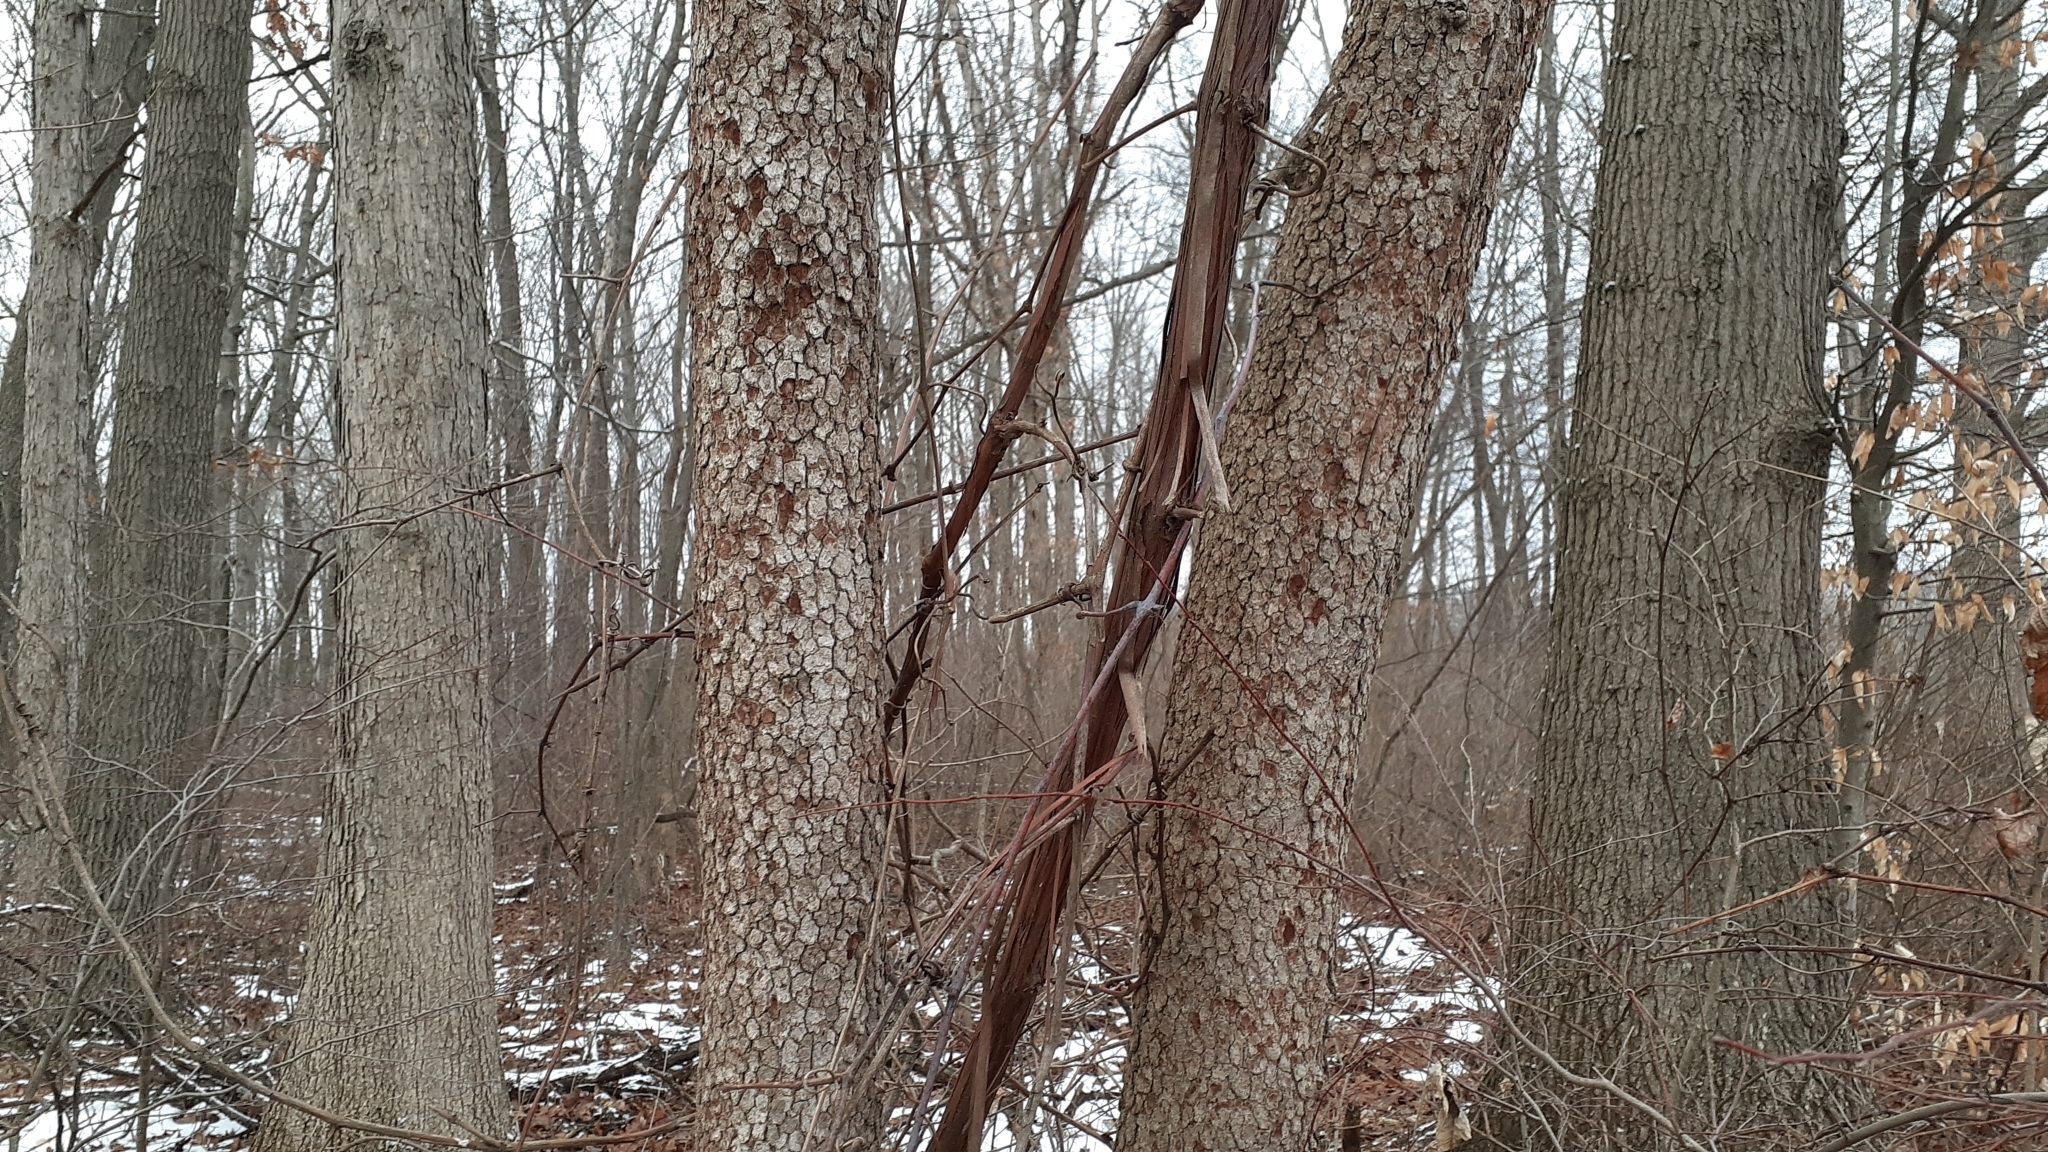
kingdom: Plantae
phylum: Tracheophyta
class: Magnoliopsida
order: Cornales
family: Cornaceae
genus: Cornus
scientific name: Cornus florida
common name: Flowering dogwood
